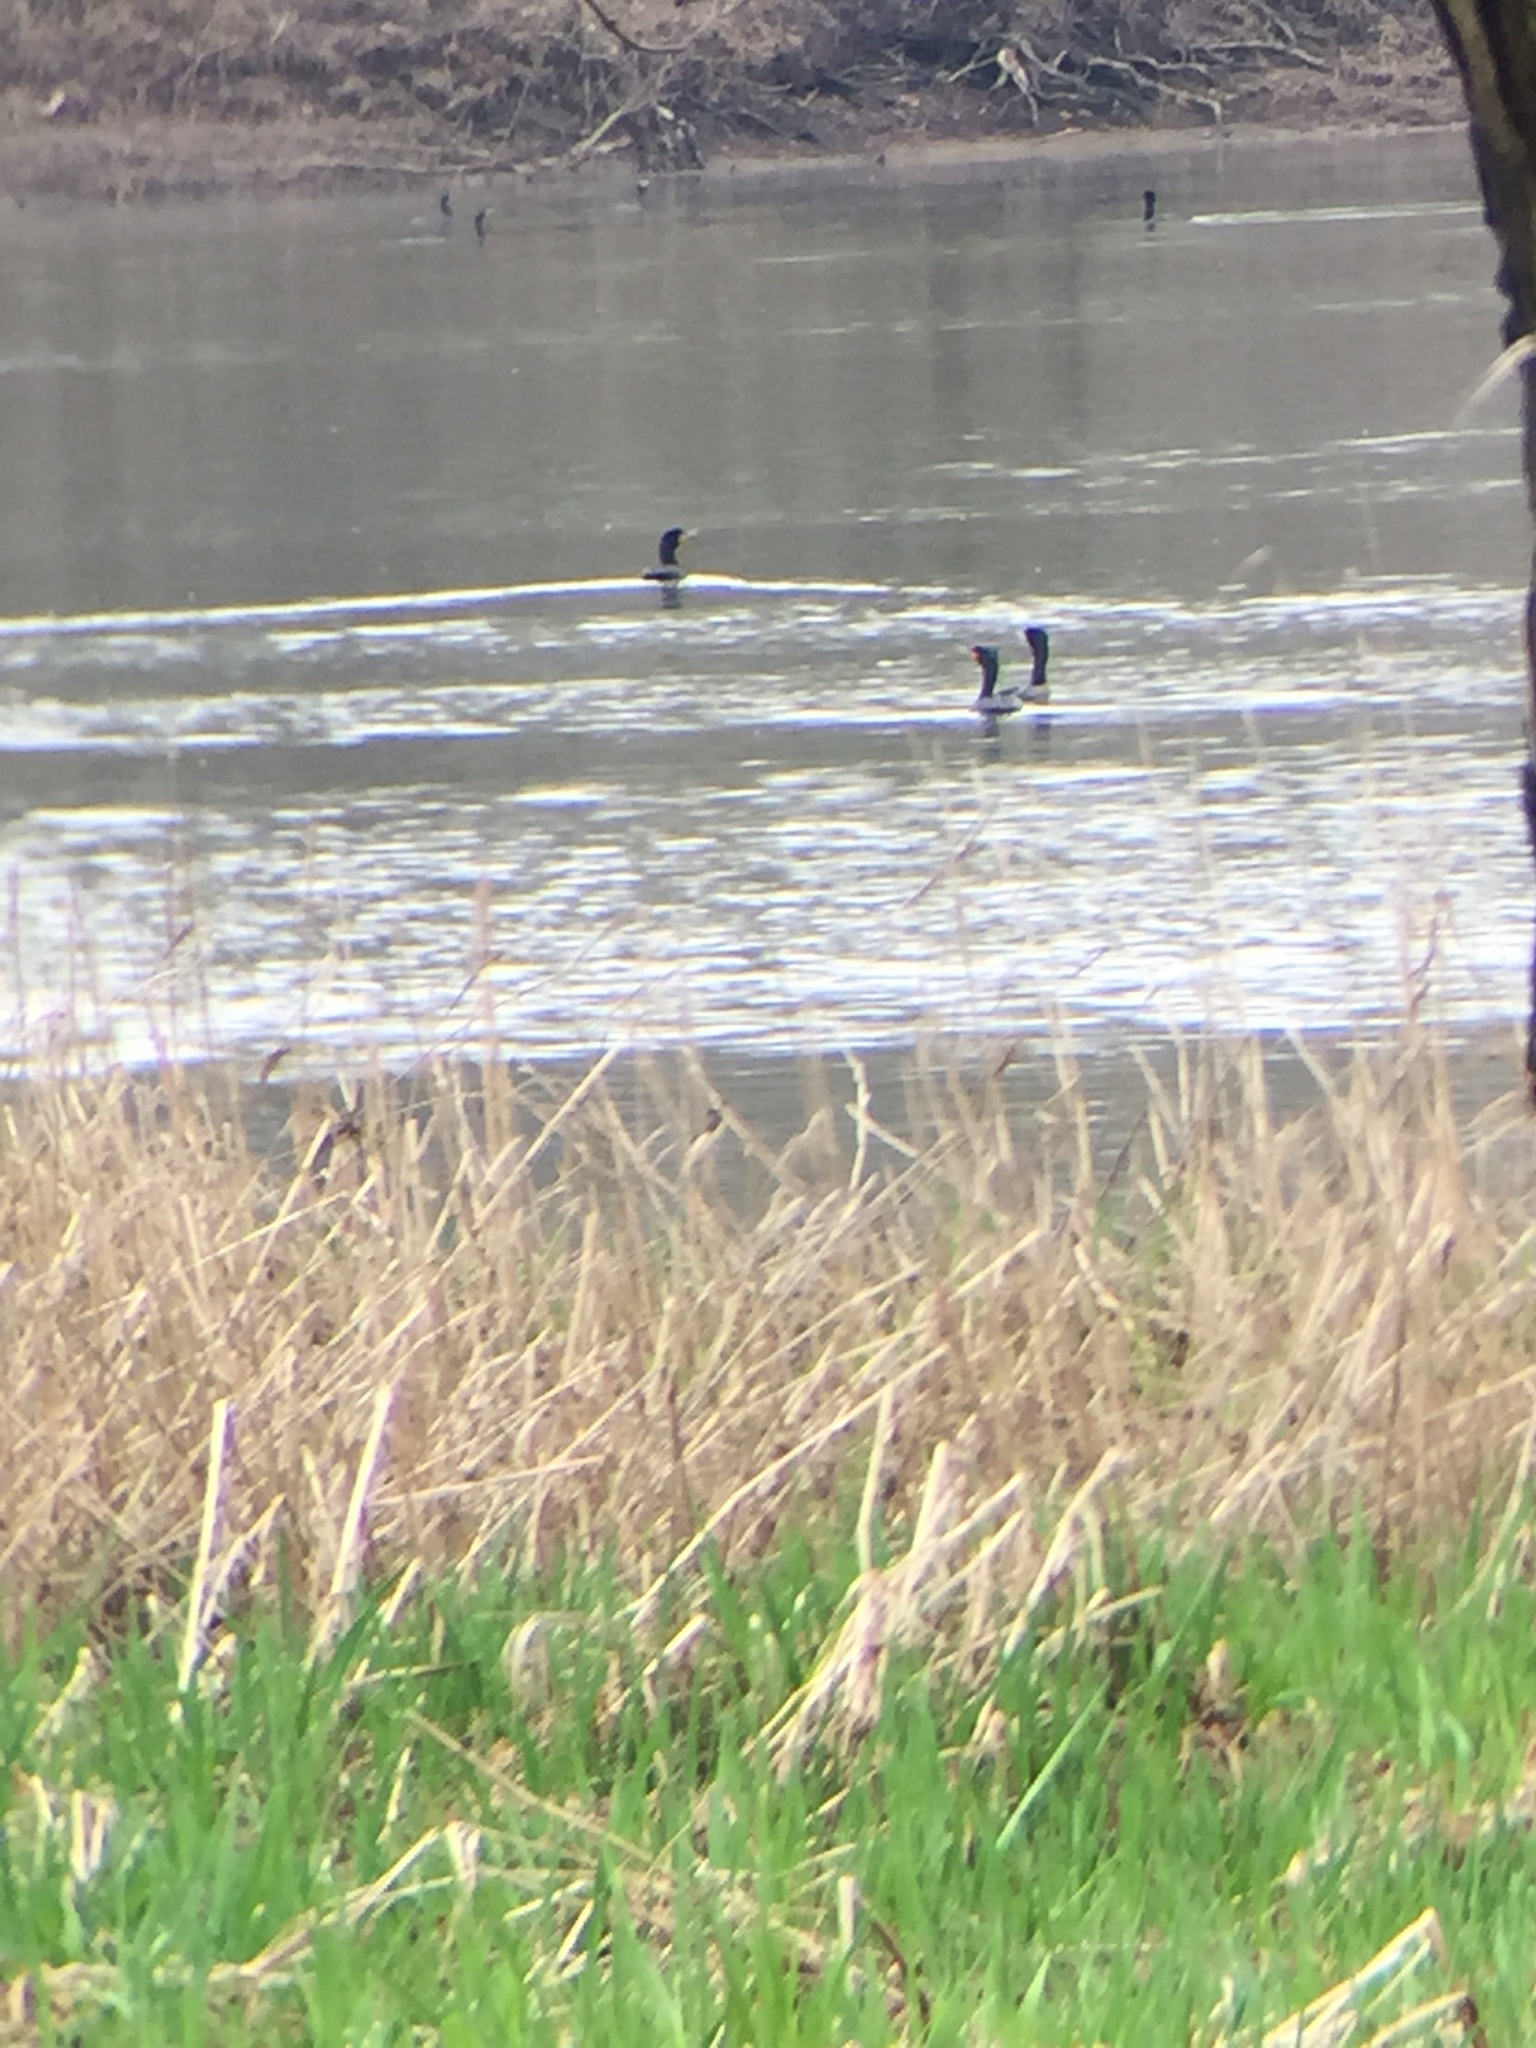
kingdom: Animalia
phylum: Chordata
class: Aves
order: Suliformes
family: Phalacrocoracidae
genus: Phalacrocorax
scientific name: Phalacrocorax auritus
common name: Double-crested cormorant
